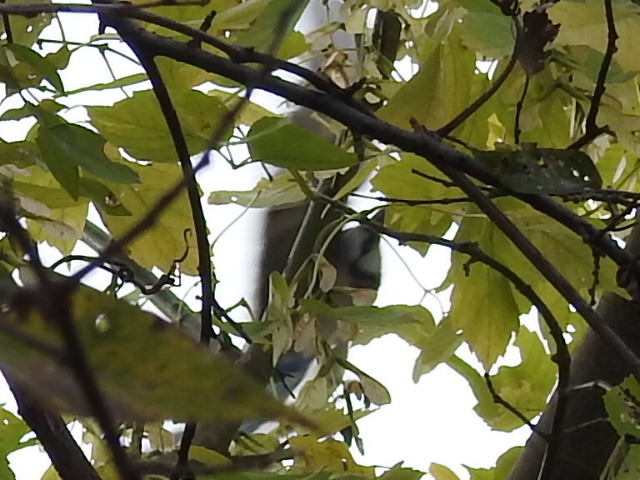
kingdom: Animalia
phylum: Chordata
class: Aves
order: Passeriformes
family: Corvidae
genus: Cyanocitta
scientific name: Cyanocitta cristata
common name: Blue jay
